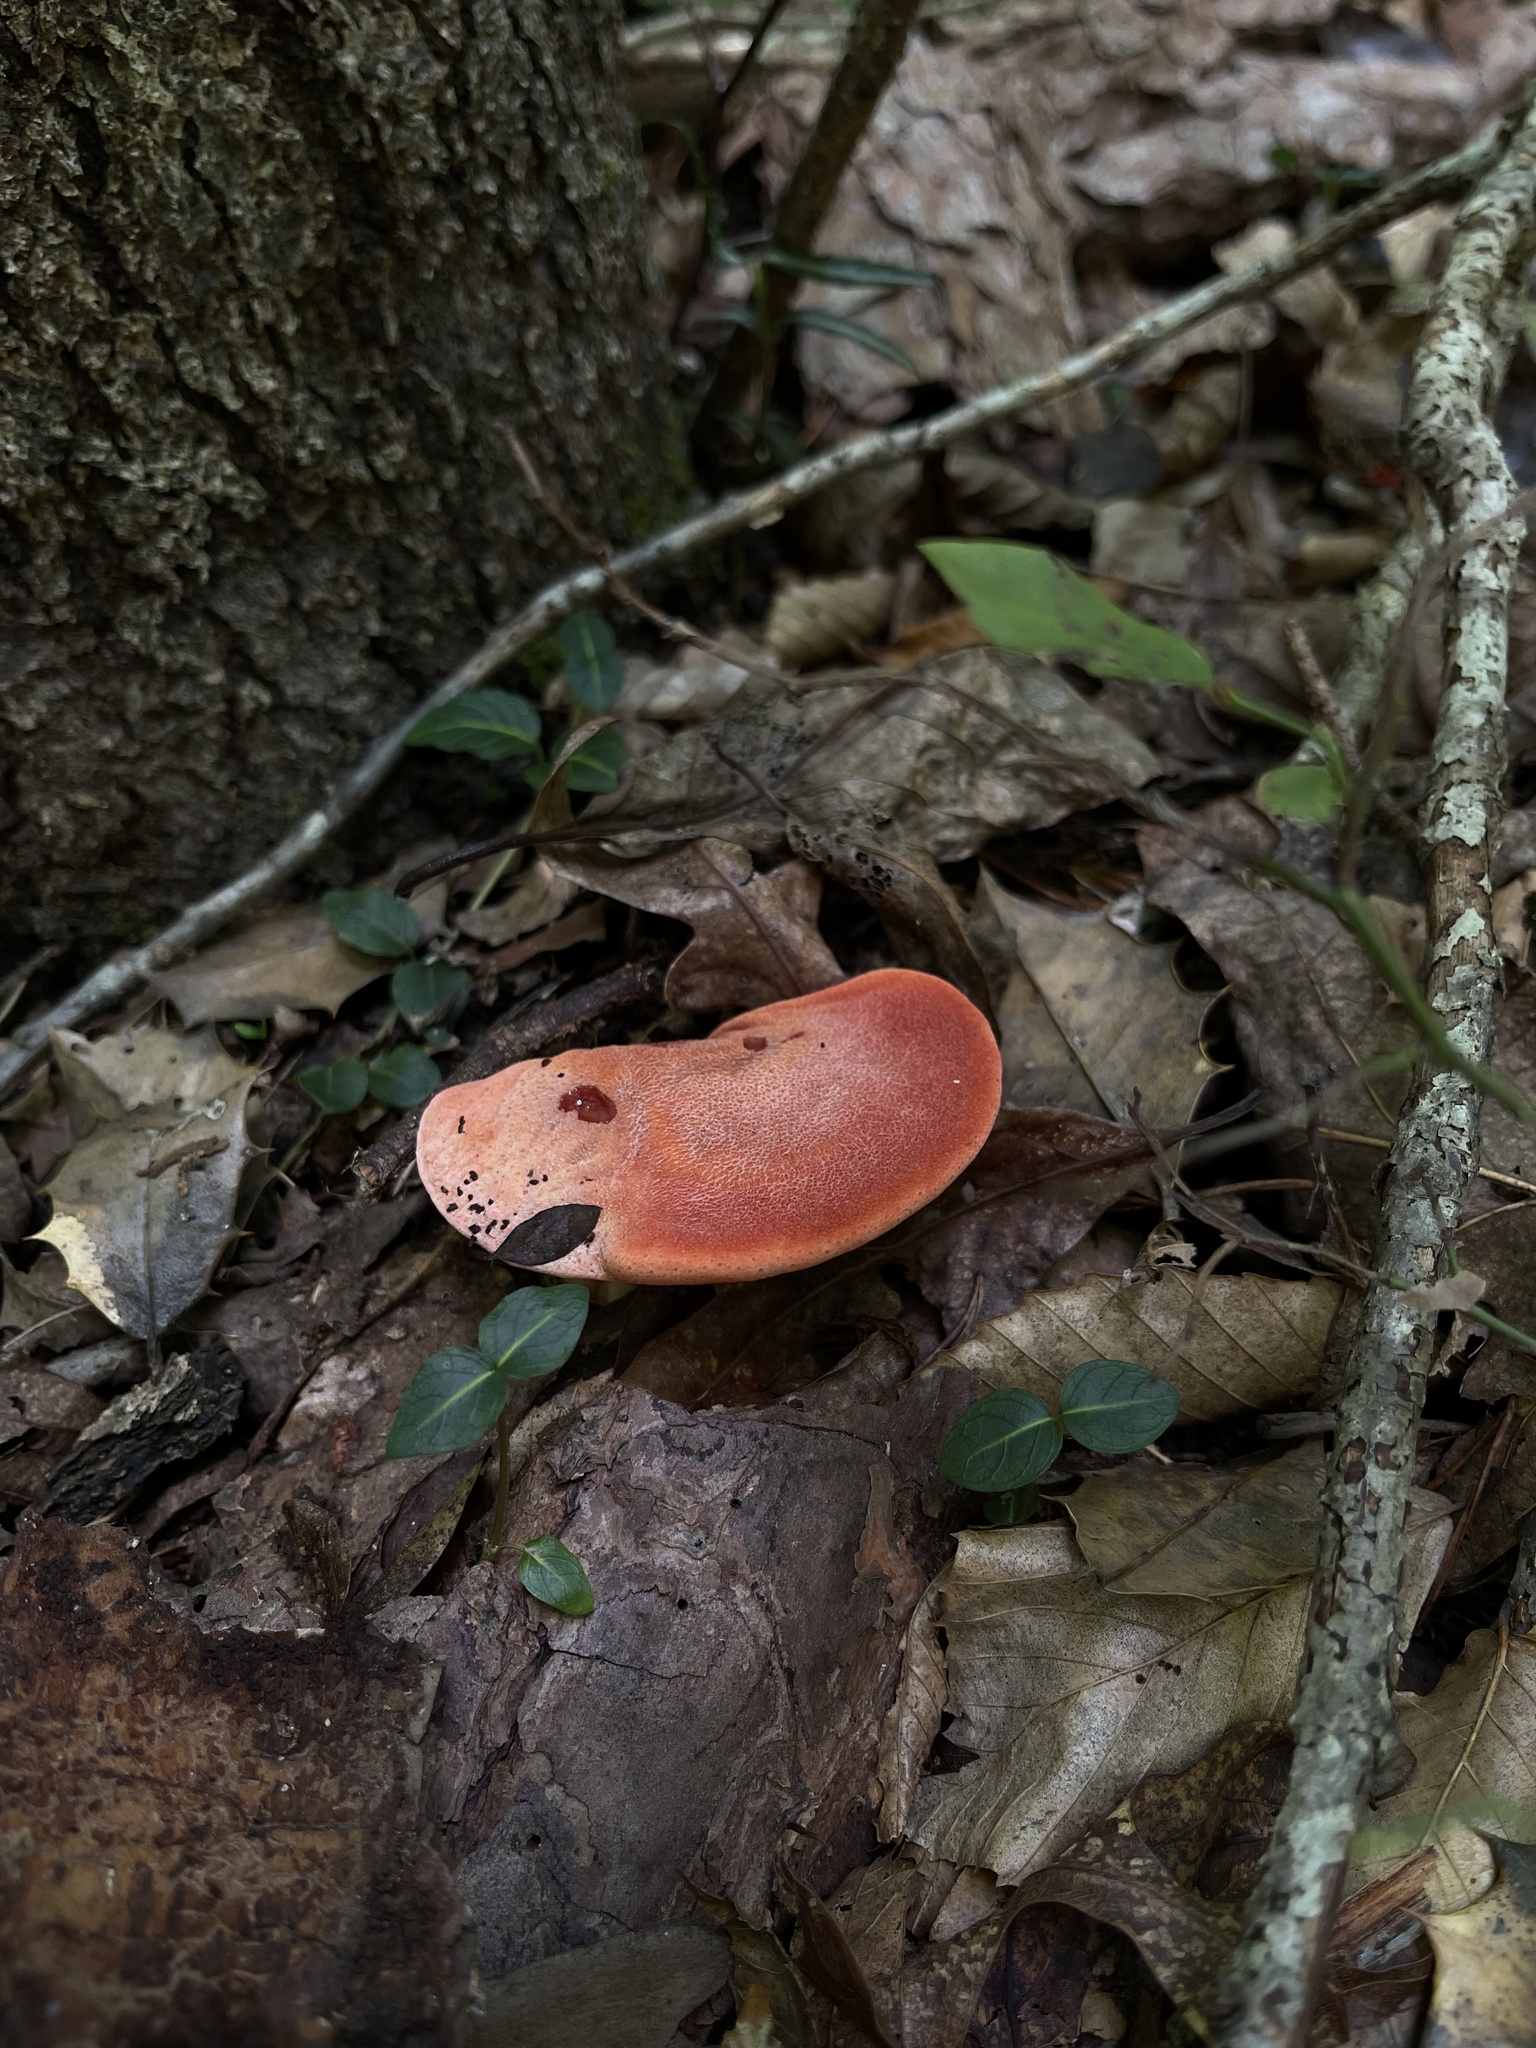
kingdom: Fungi
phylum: Basidiomycota
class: Agaricomycetes
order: Agaricales
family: Fistulinaceae
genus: Fistulina
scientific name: Fistulina hepatica
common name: Beef-steak fungus
